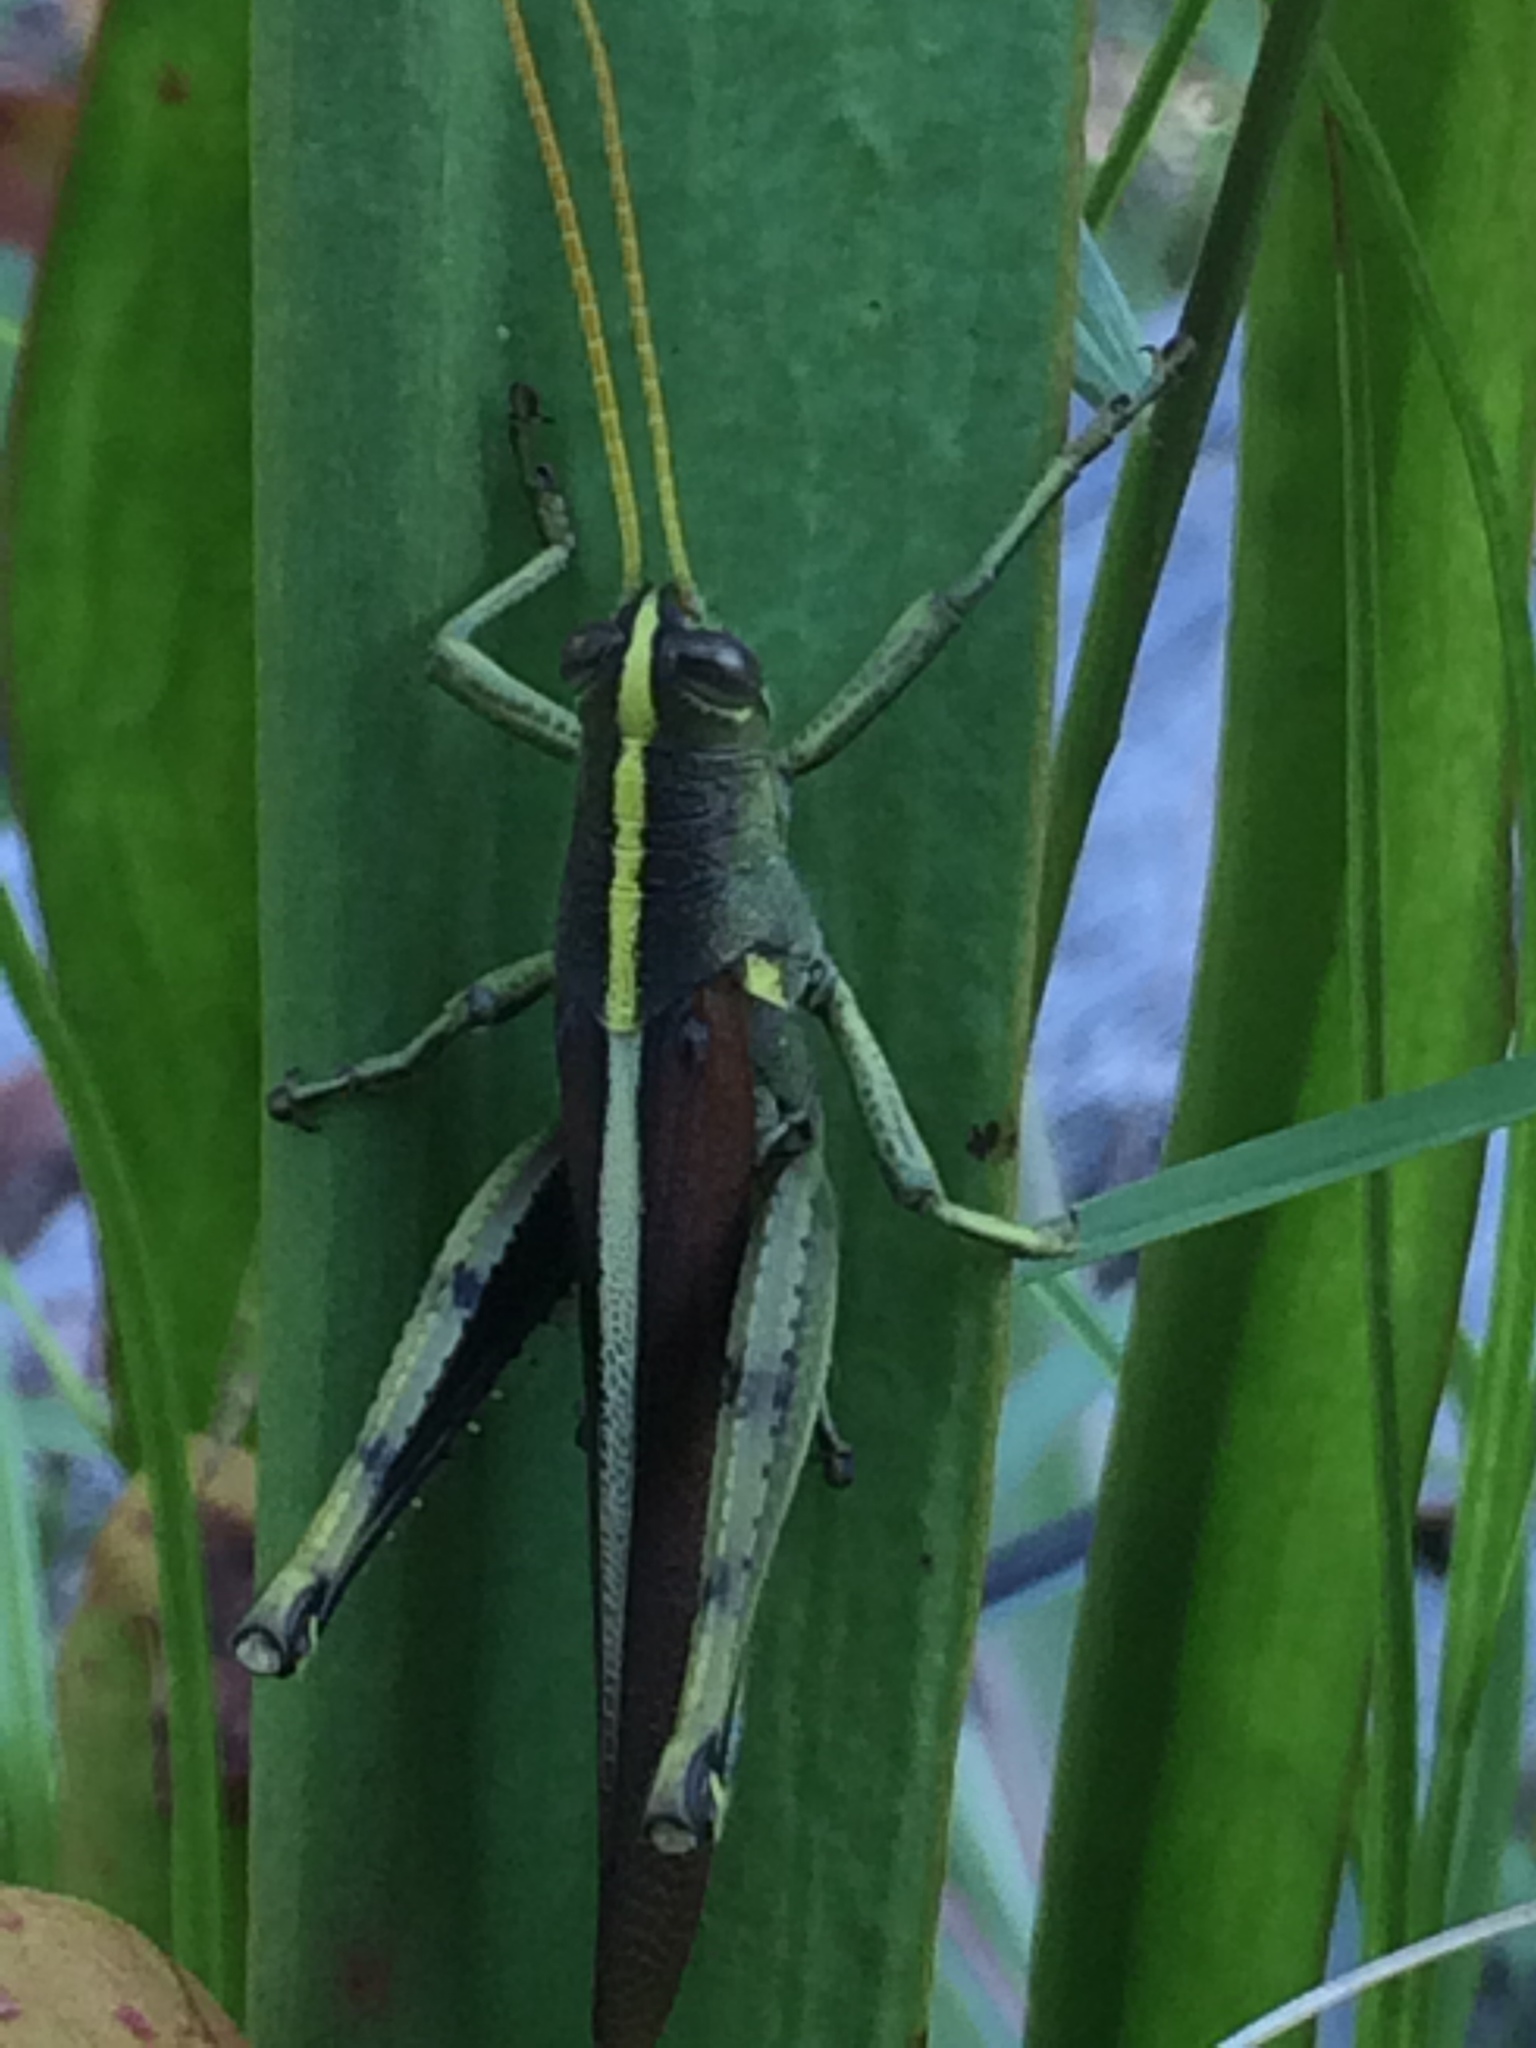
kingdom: Animalia
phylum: Arthropoda
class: Insecta
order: Orthoptera
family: Acrididae
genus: Schistocerca
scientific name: Schistocerca obscura
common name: Obscure bird grasshopper
